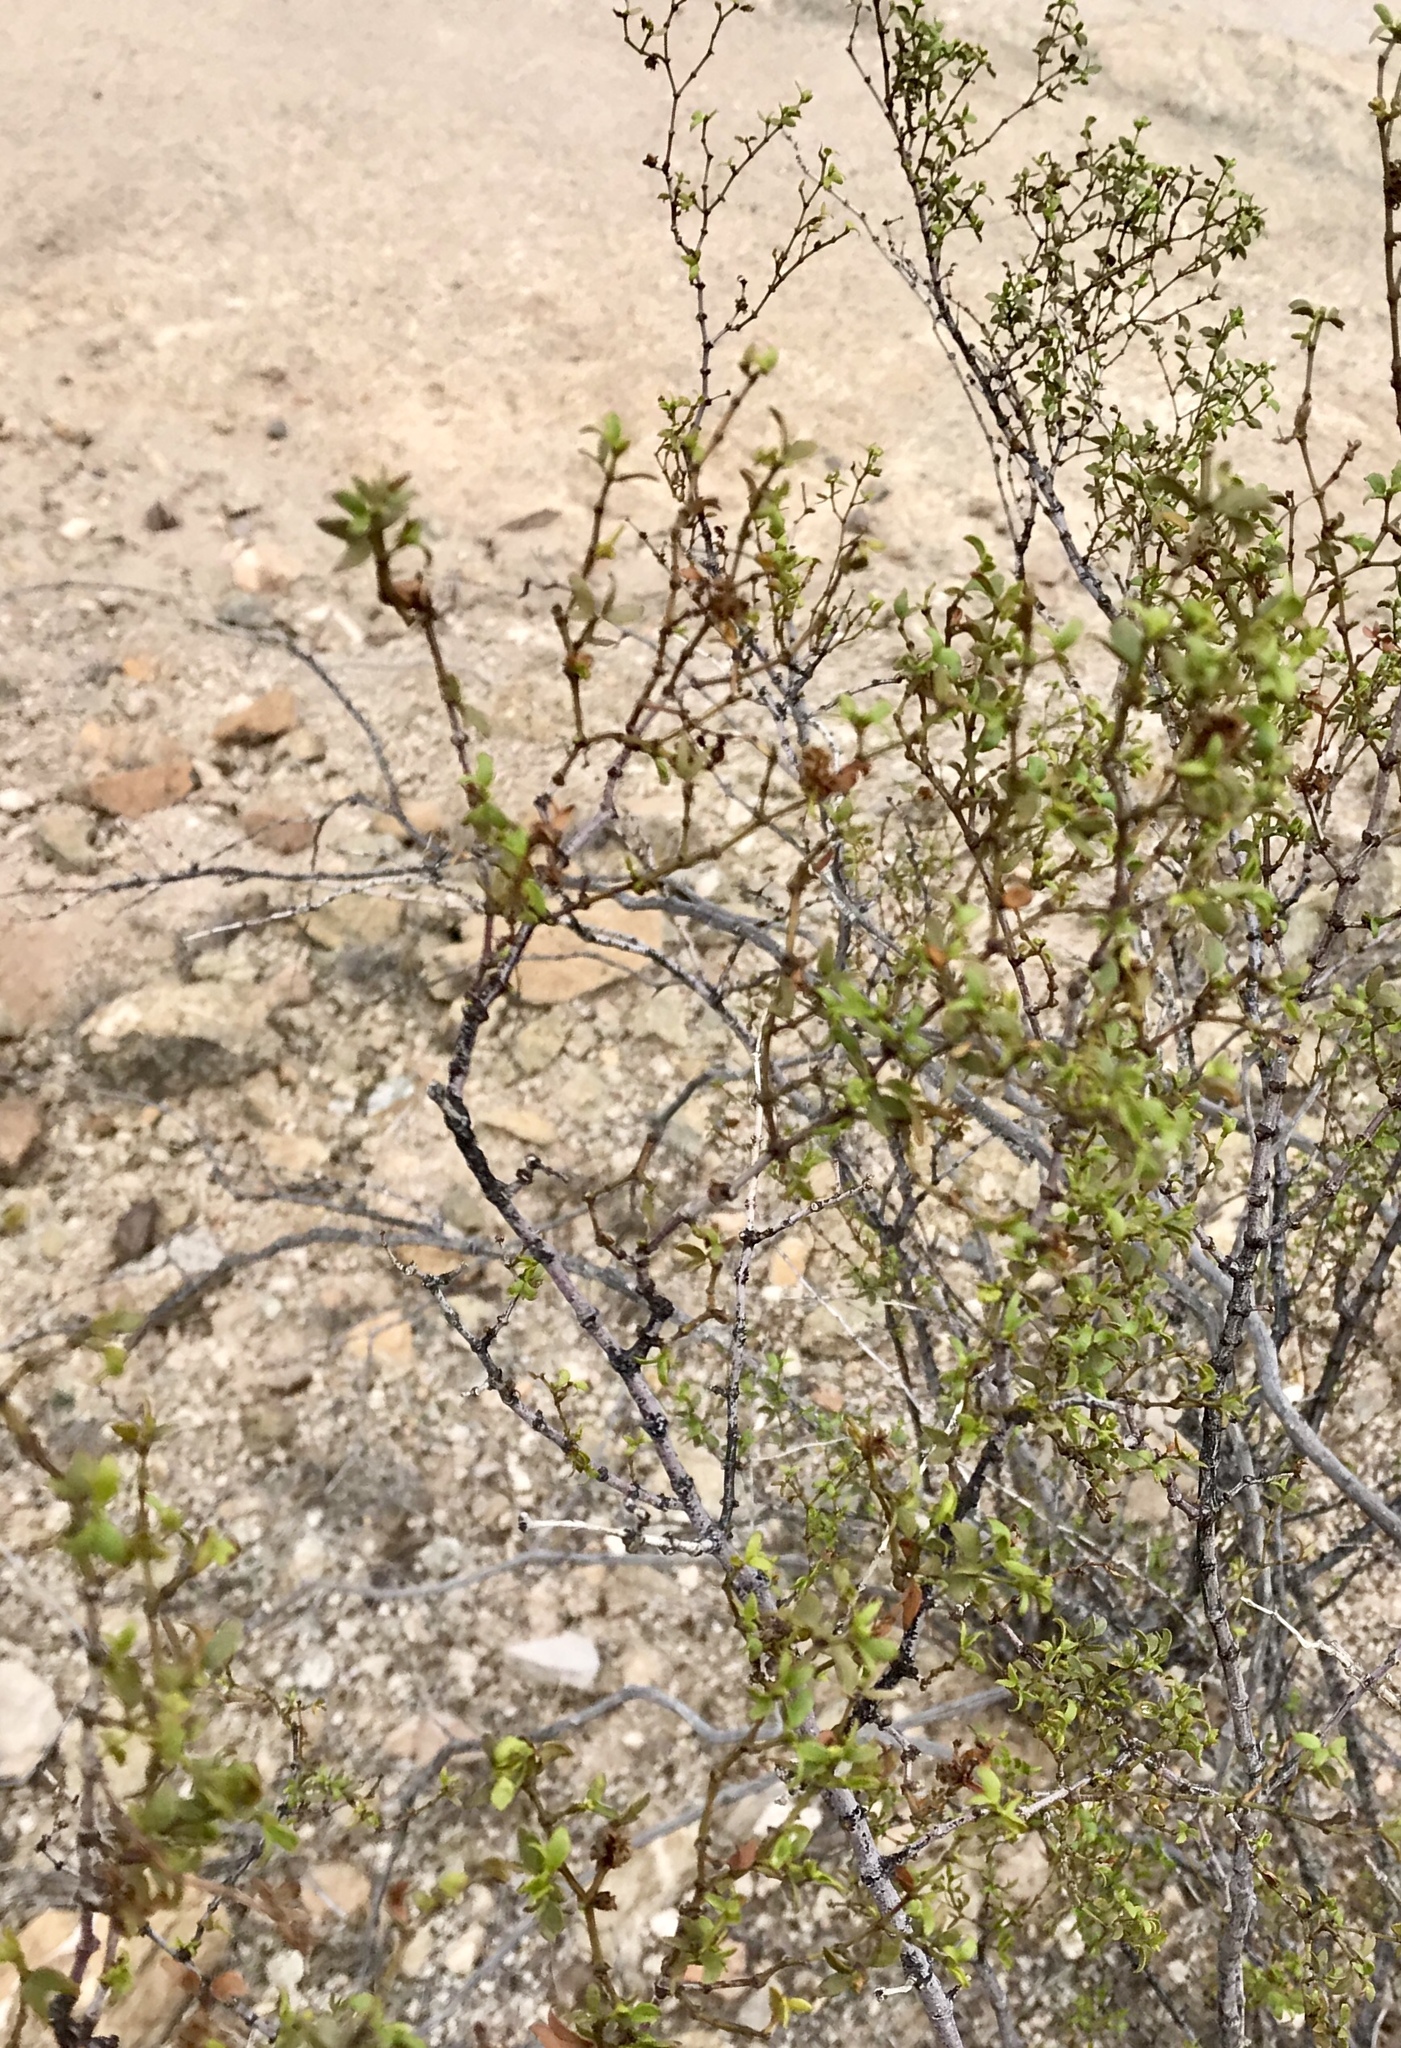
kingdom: Plantae
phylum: Tracheophyta
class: Magnoliopsida
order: Zygophyllales
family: Zygophyllaceae
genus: Larrea
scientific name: Larrea tridentata
